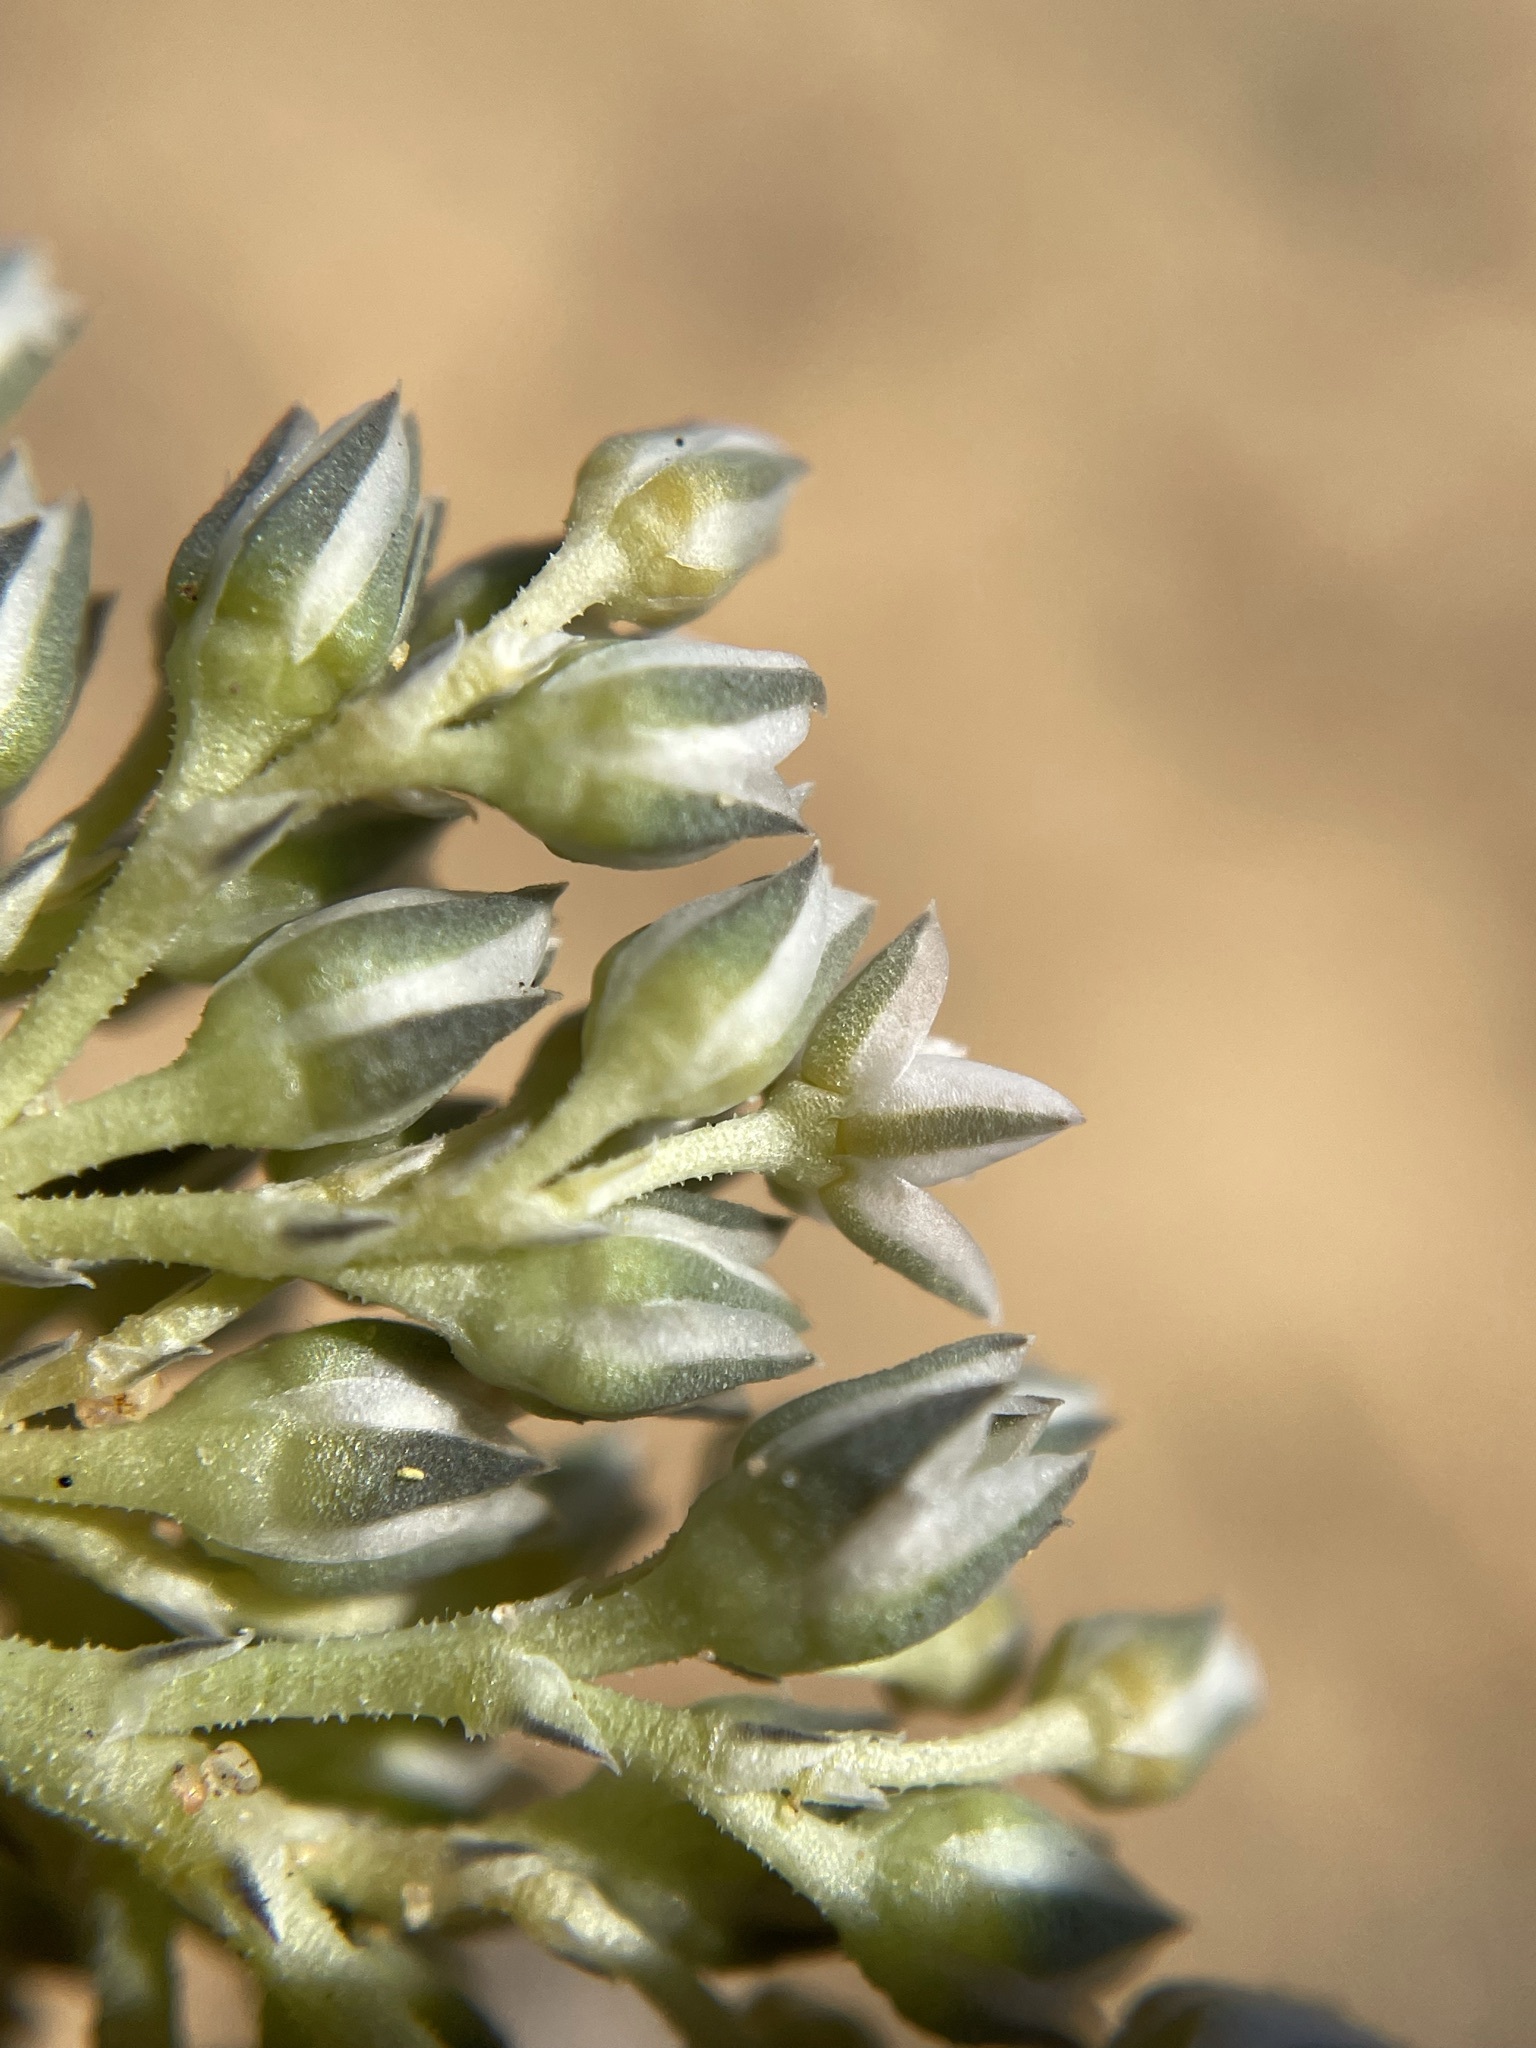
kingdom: Plantae
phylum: Tracheophyta
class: Magnoliopsida
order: Caryophyllales
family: Limeaceae
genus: Limeum
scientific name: Limeum africanum
